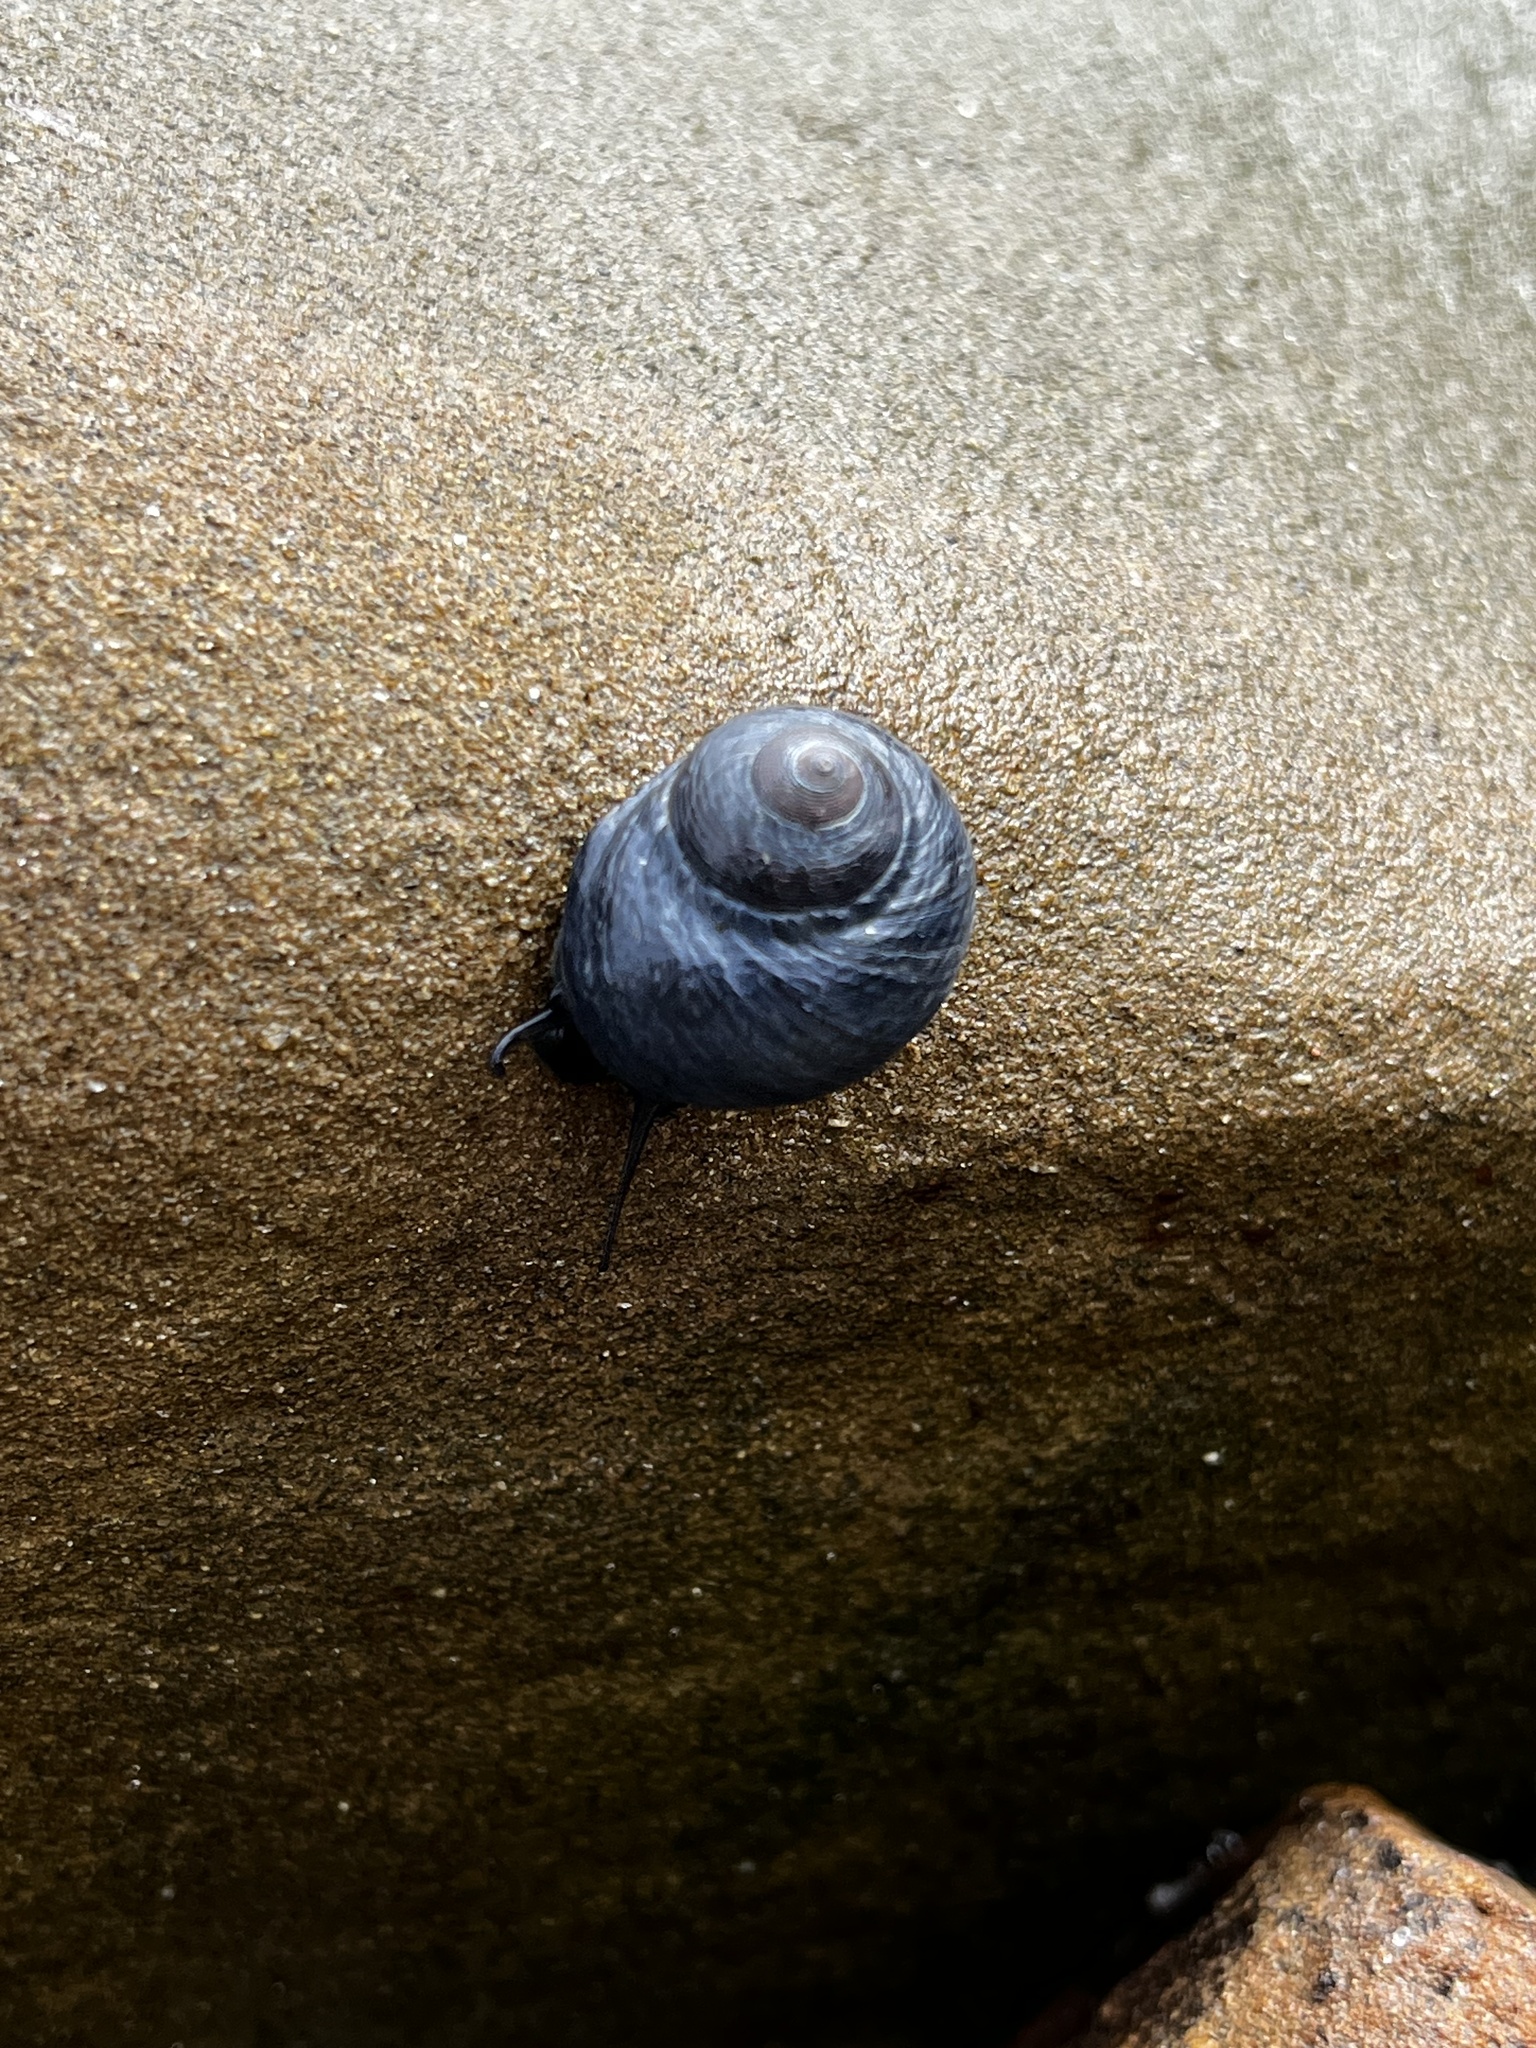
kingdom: Animalia
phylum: Mollusca
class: Gastropoda
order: Trochida
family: Trochidae
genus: Diloma
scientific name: Diloma nigerrimum
